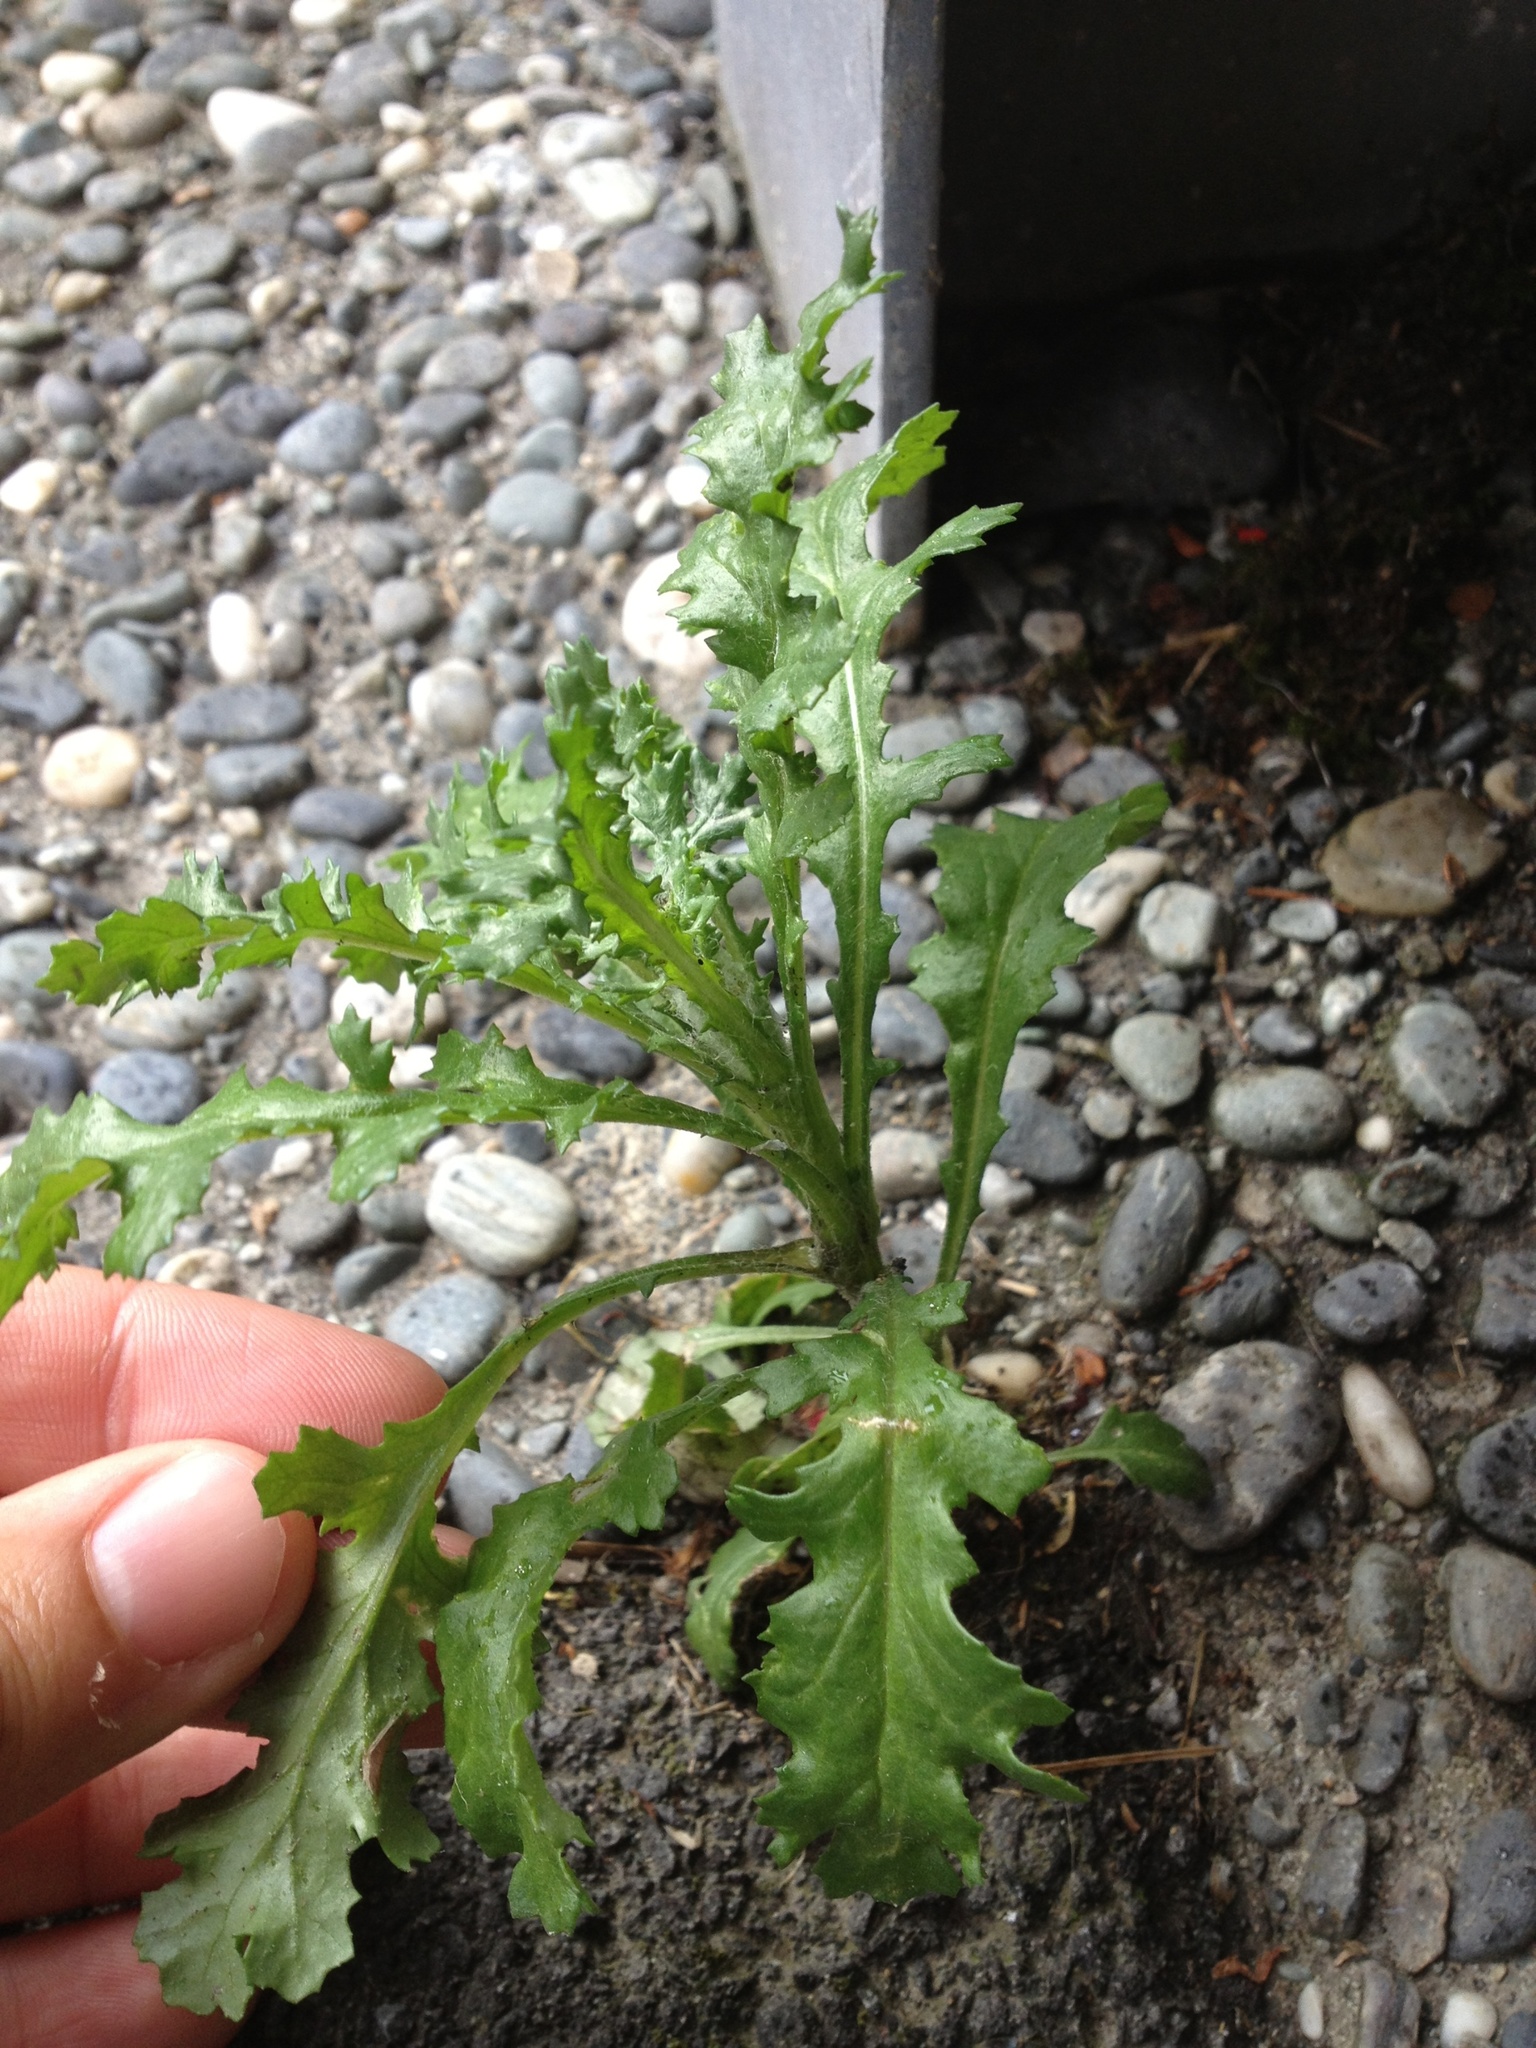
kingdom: Plantae
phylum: Tracheophyta
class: Magnoliopsida
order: Asterales
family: Asteraceae
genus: Senecio
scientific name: Senecio vulgaris
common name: Old-man-in-the-spring
